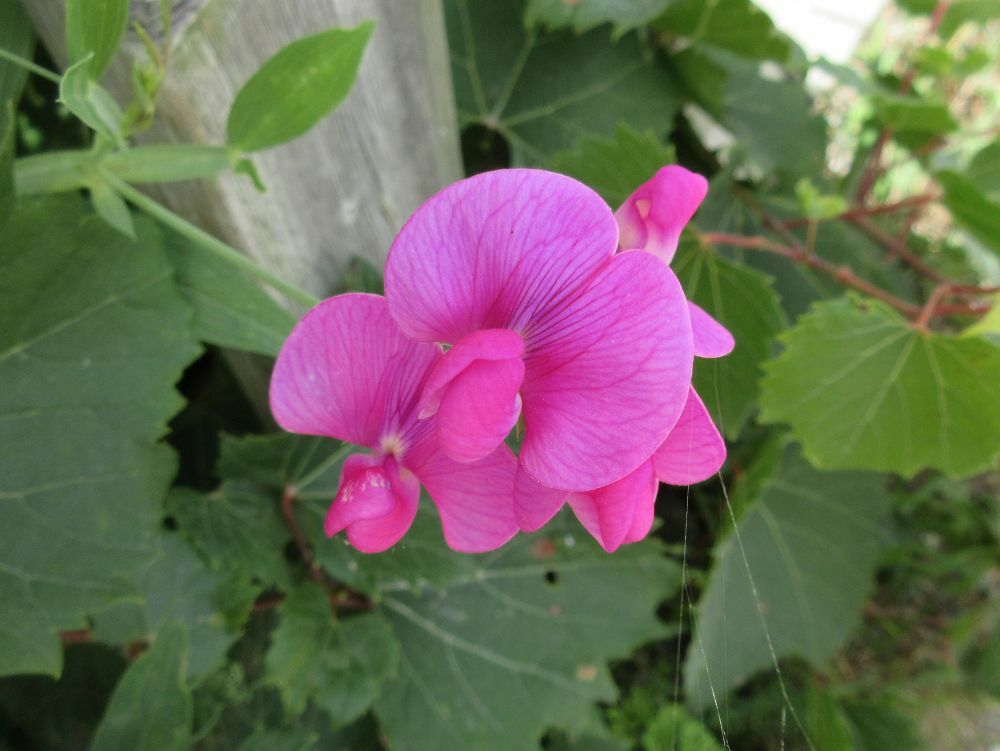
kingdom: Plantae
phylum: Tracheophyta
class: Magnoliopsida
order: Fabales
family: Fabaceae
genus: Lathyrus
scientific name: Lathyrus latifolius
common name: Perennial pea
